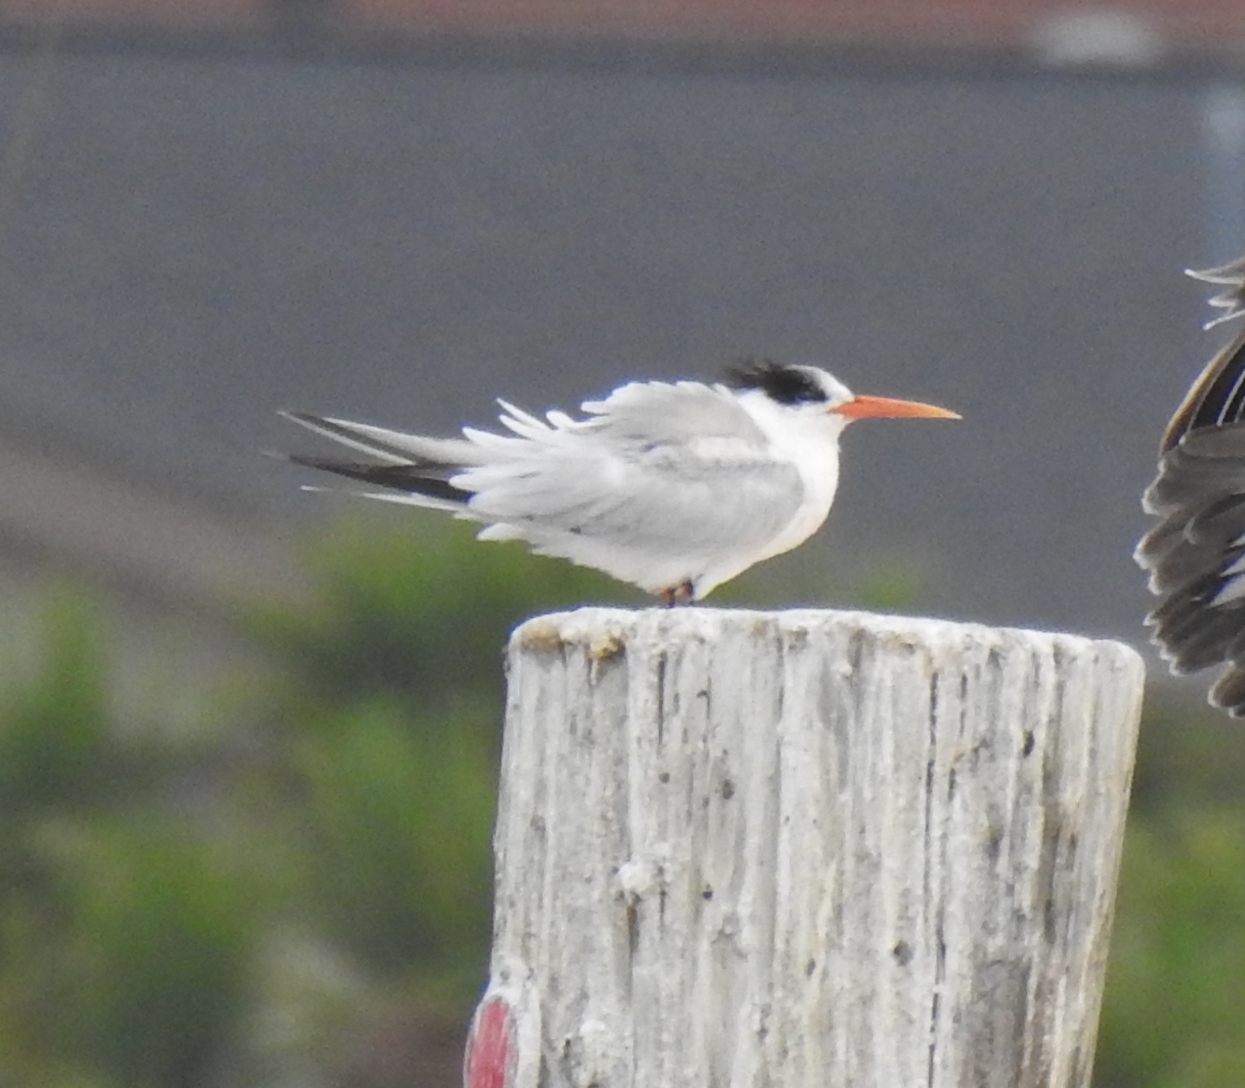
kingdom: Animalia
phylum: Chordata
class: Aves
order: Charadriiformes
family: Laridae
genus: Thalasseus
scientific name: Thalasseus elegans
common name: Elegant tern
